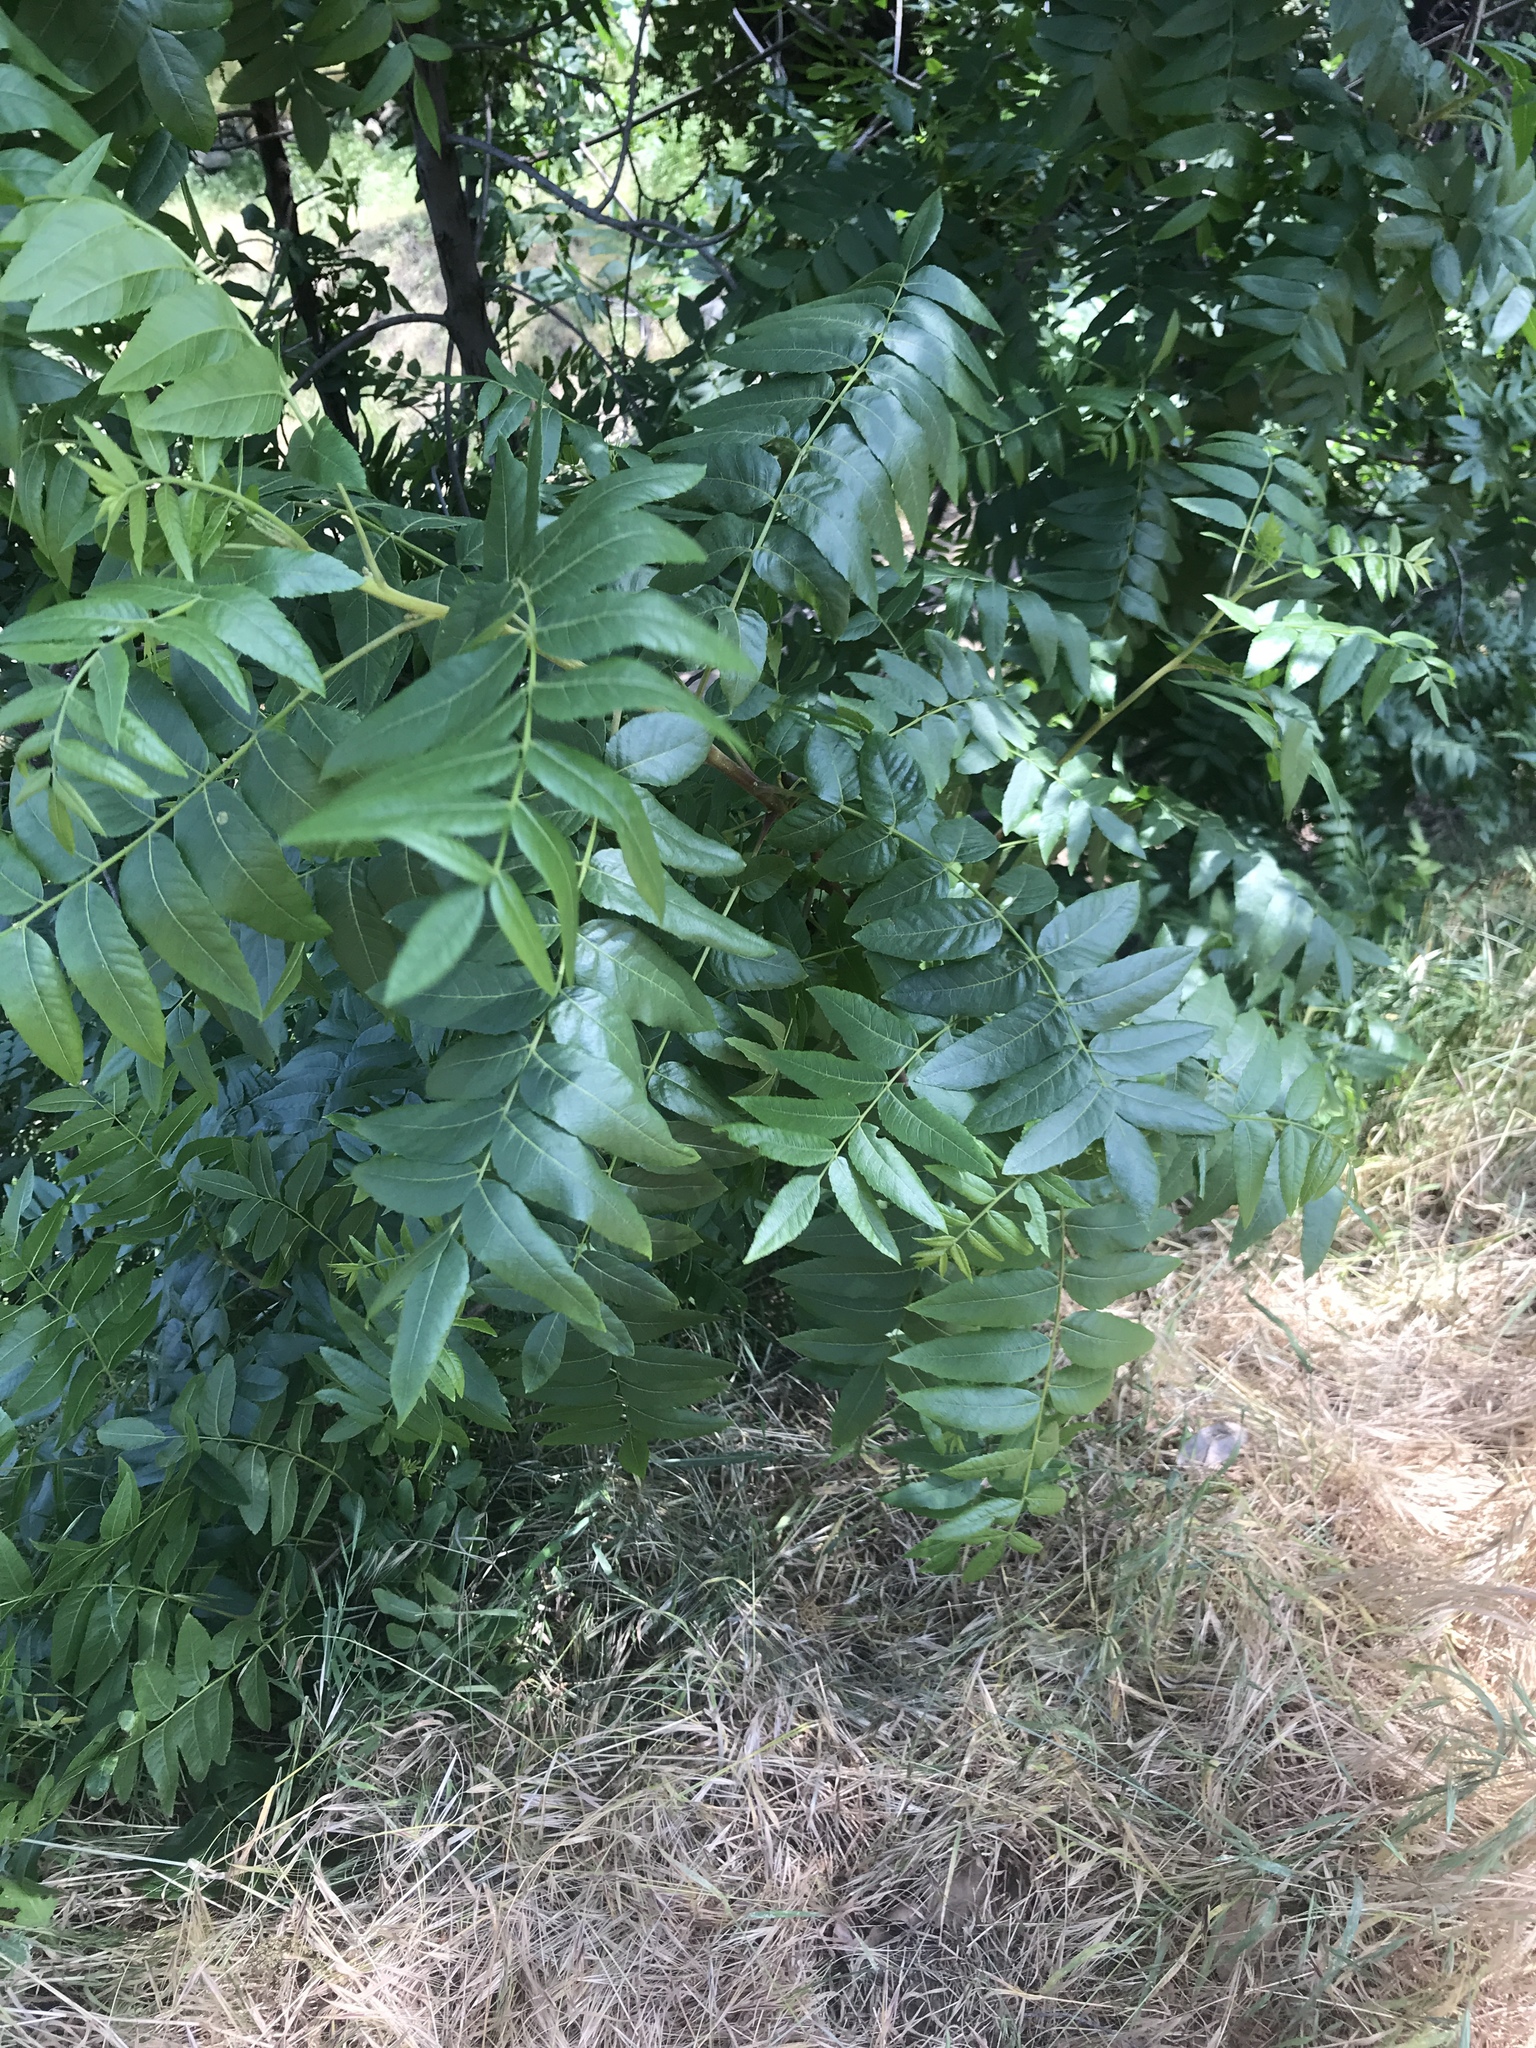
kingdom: Plantae
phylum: Tracheophyta
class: Magnoliopsida
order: Fagales
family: Juglandaceae
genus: Juglans
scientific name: Juglans californica
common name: Southern california black walnut
